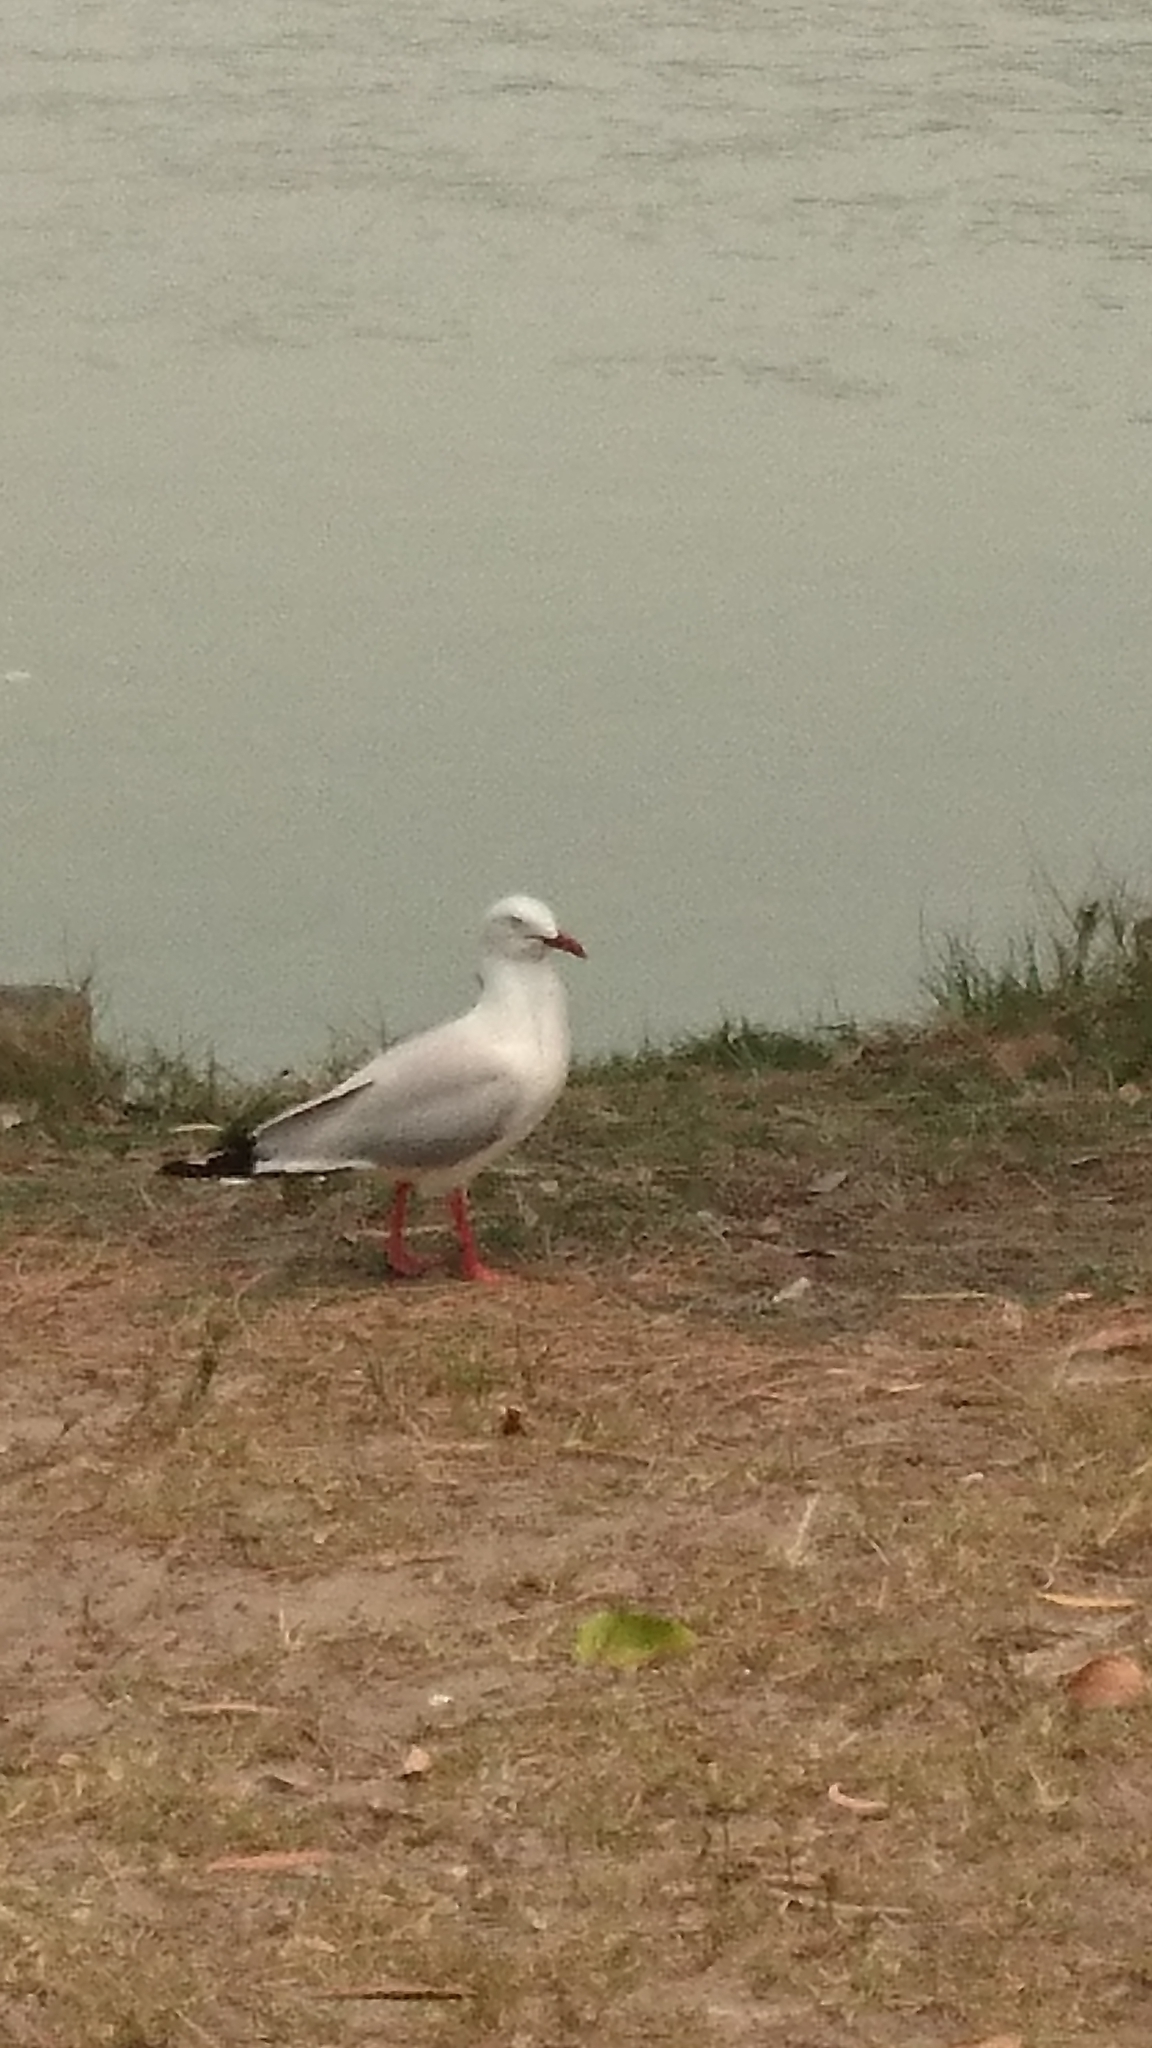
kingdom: Animalia
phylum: Chordata
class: Aves
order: Charadriiformes
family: Laridae
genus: Chroicocephalus
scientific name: Chroicocephalus novaehollandiae
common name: Silver gull
